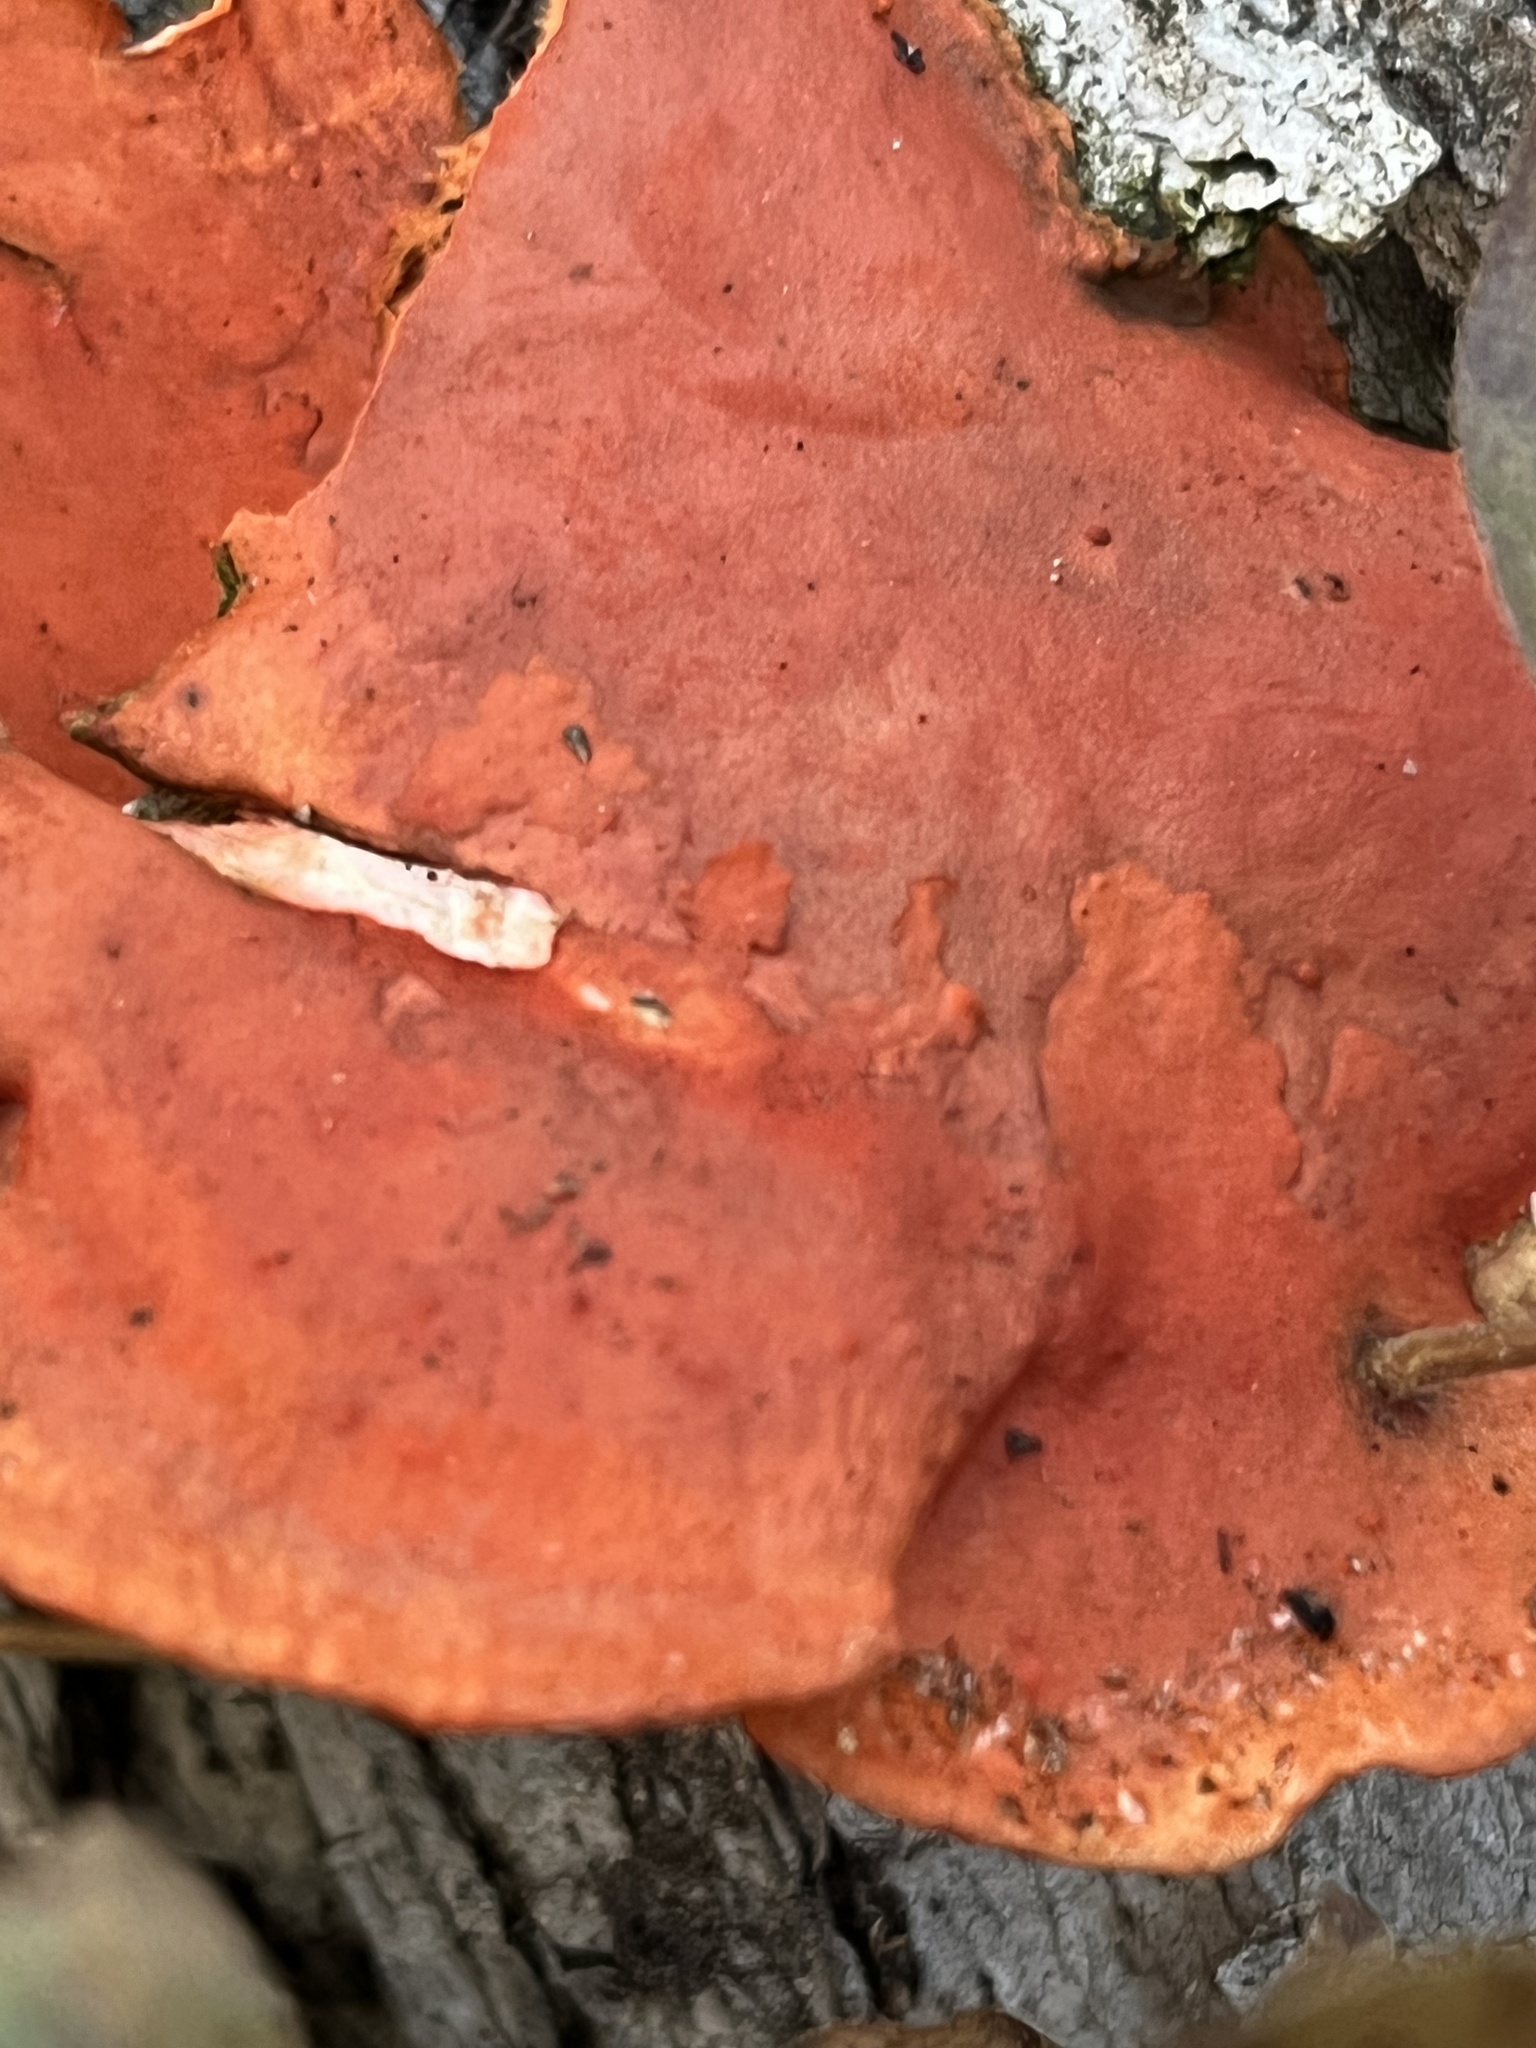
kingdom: Fungi
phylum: Basidiomycota
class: Agaricomycetes
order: Polyporales
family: Polyporaceae
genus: Trametes
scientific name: Trametes cinnabarina
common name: Northern cinnabar polypore
